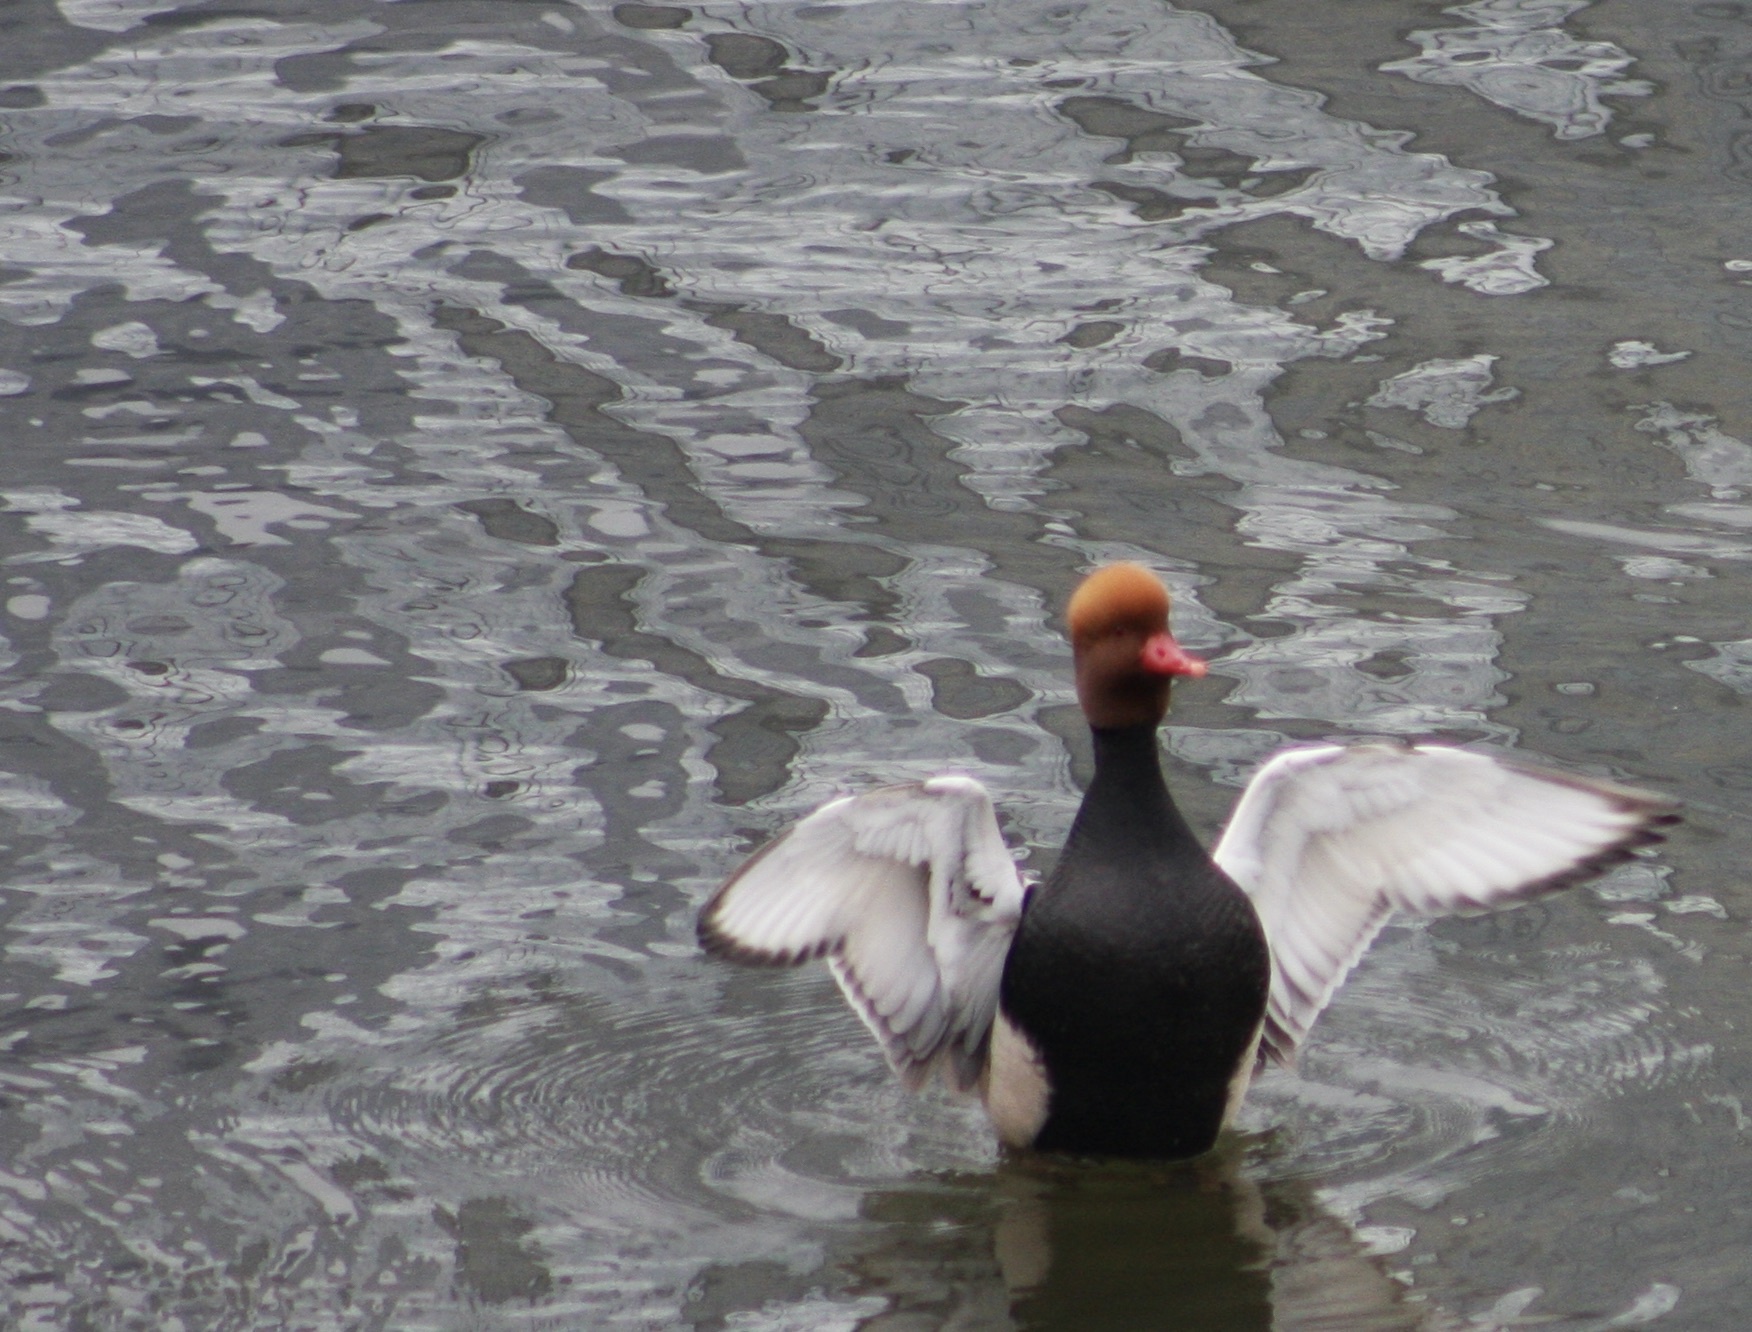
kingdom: Animalia
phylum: Chordata
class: Aves
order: Anseriformes
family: Anatidae
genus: Netta
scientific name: Netta rufina
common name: Red-crested pochard
